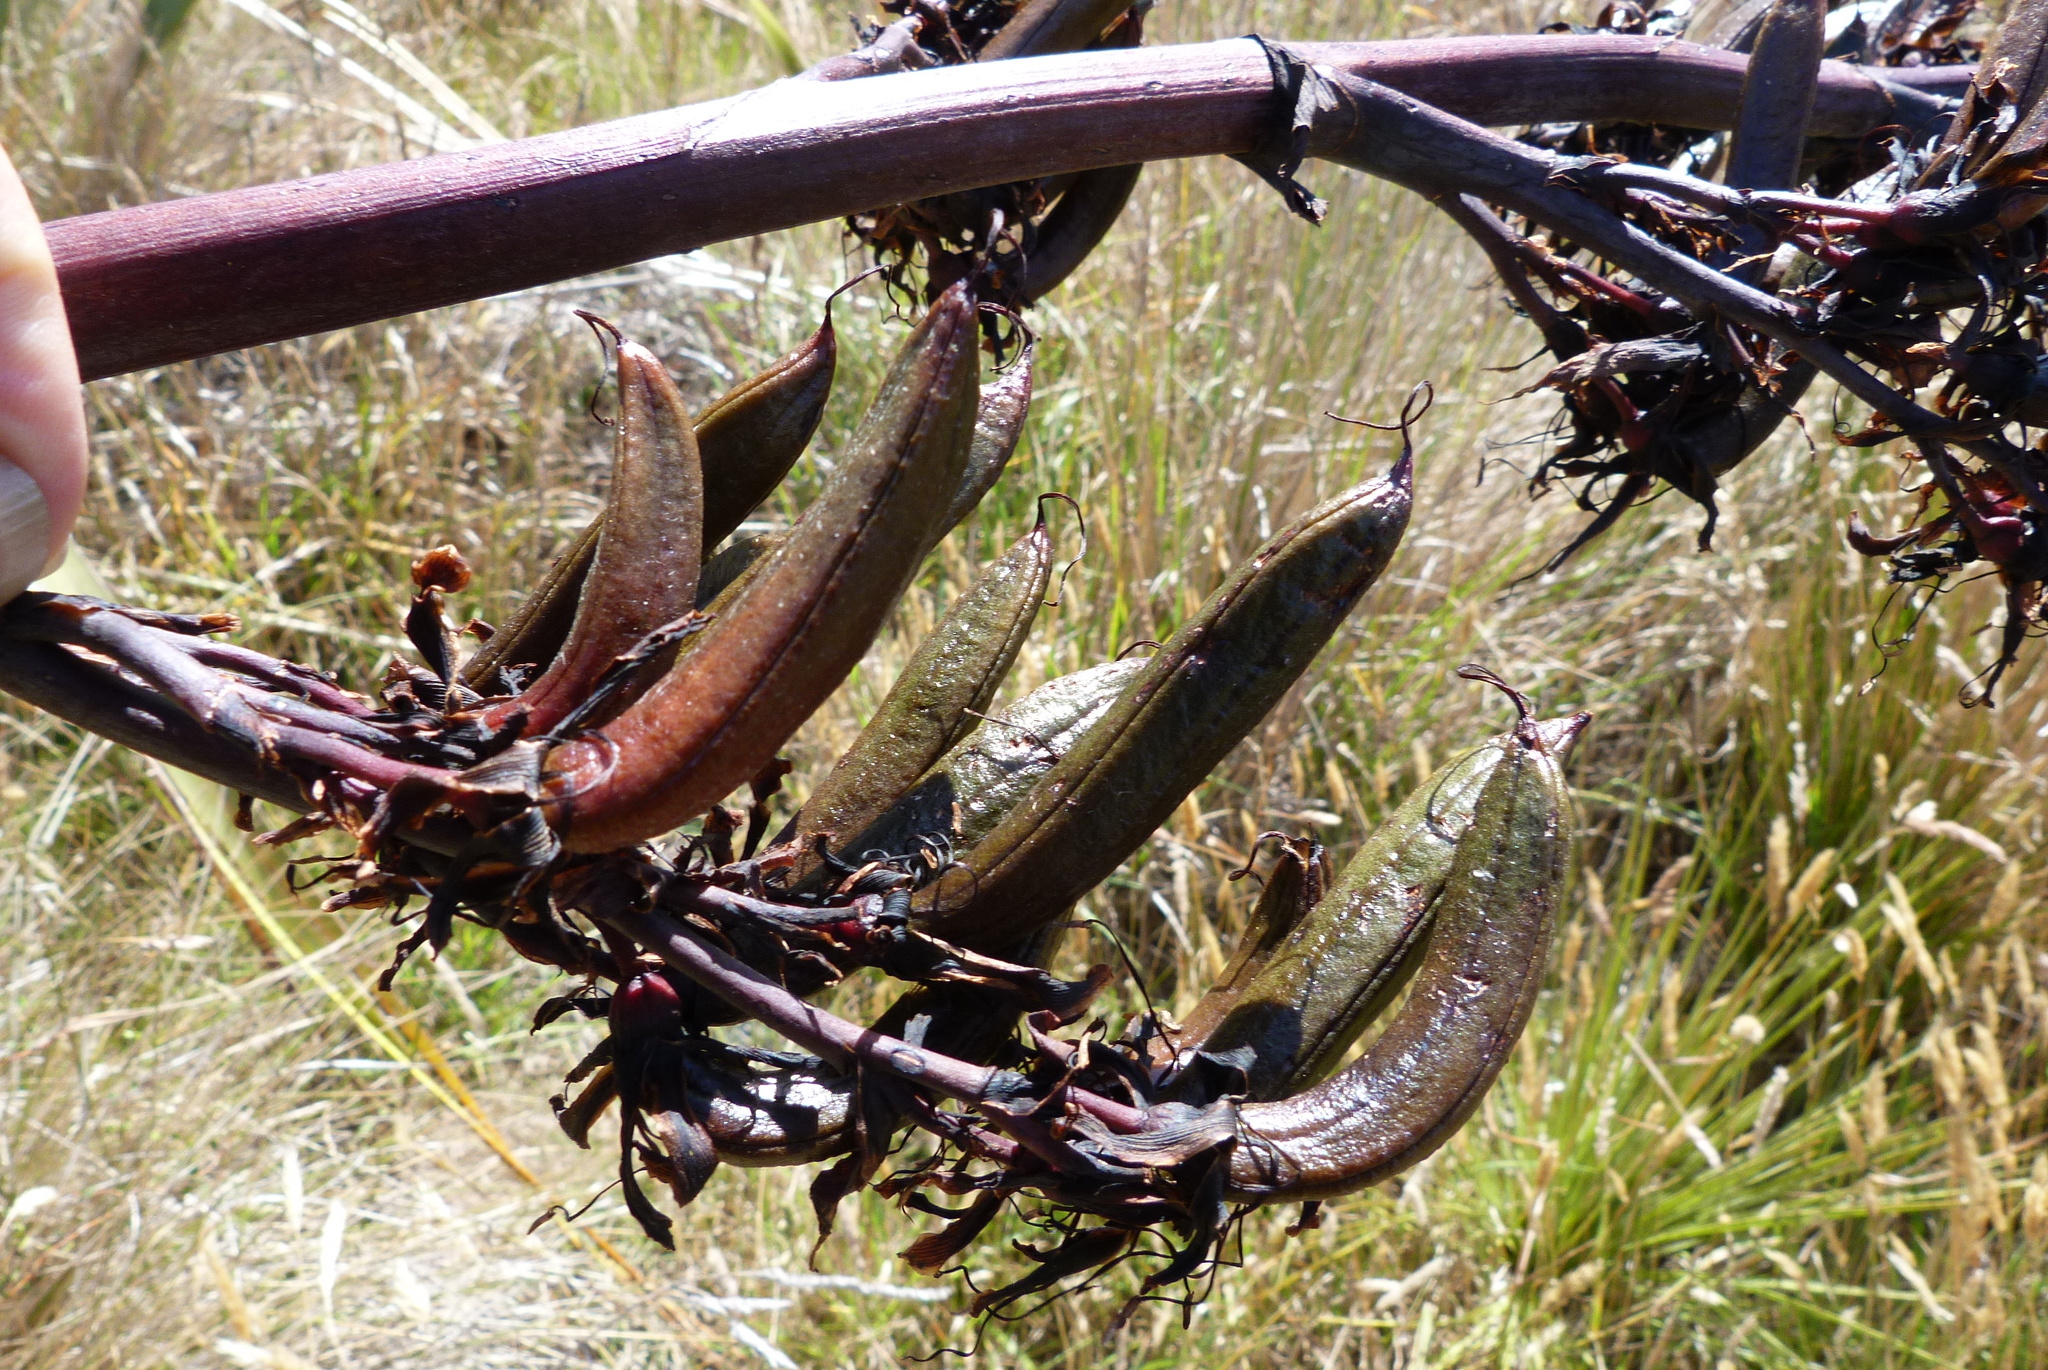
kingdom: Plantae
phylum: Tracheophyta
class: Liliopsida
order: Asparagales
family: Asphodelaceae
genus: Phormium
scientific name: Phormium tenax
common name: New zealand flax
